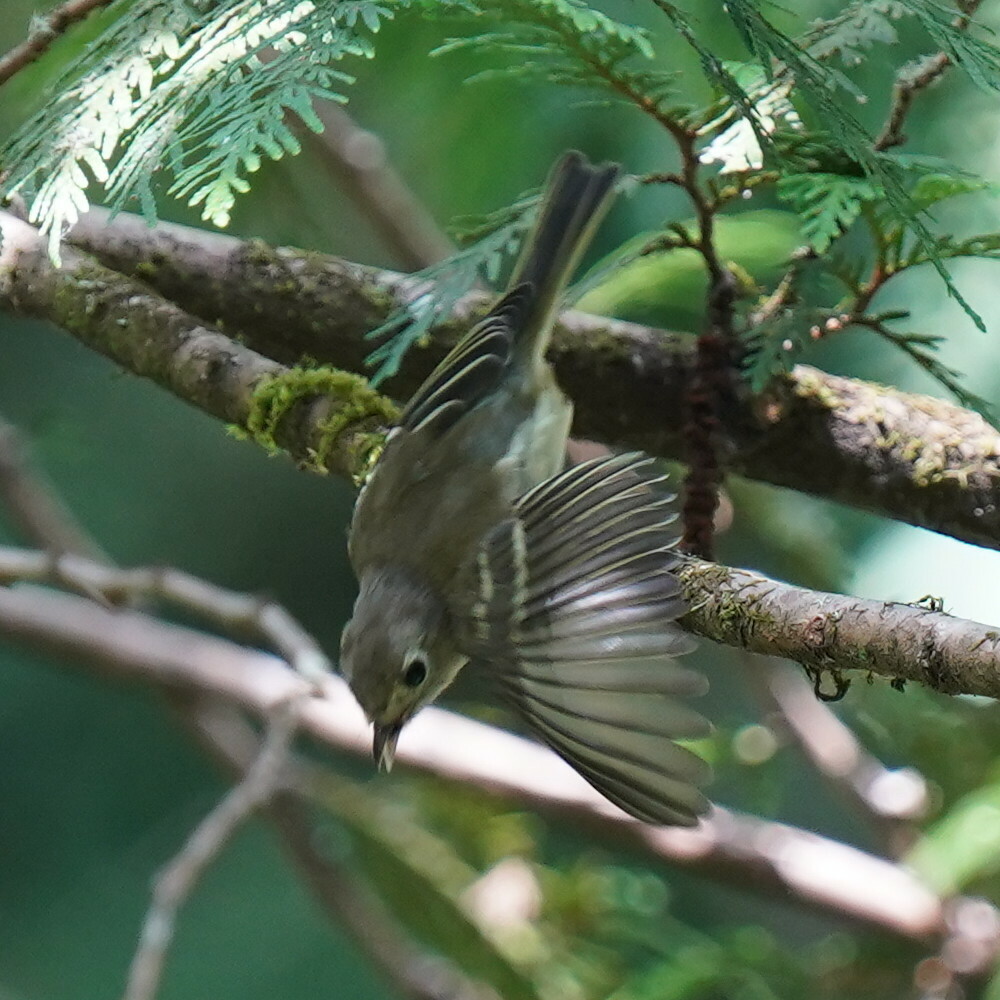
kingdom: Animalia
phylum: Chordata
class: Aves
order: Passeriformes
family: Vireonidae
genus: Vireo
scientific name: Vireo huttoni
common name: Hutton's vireo
